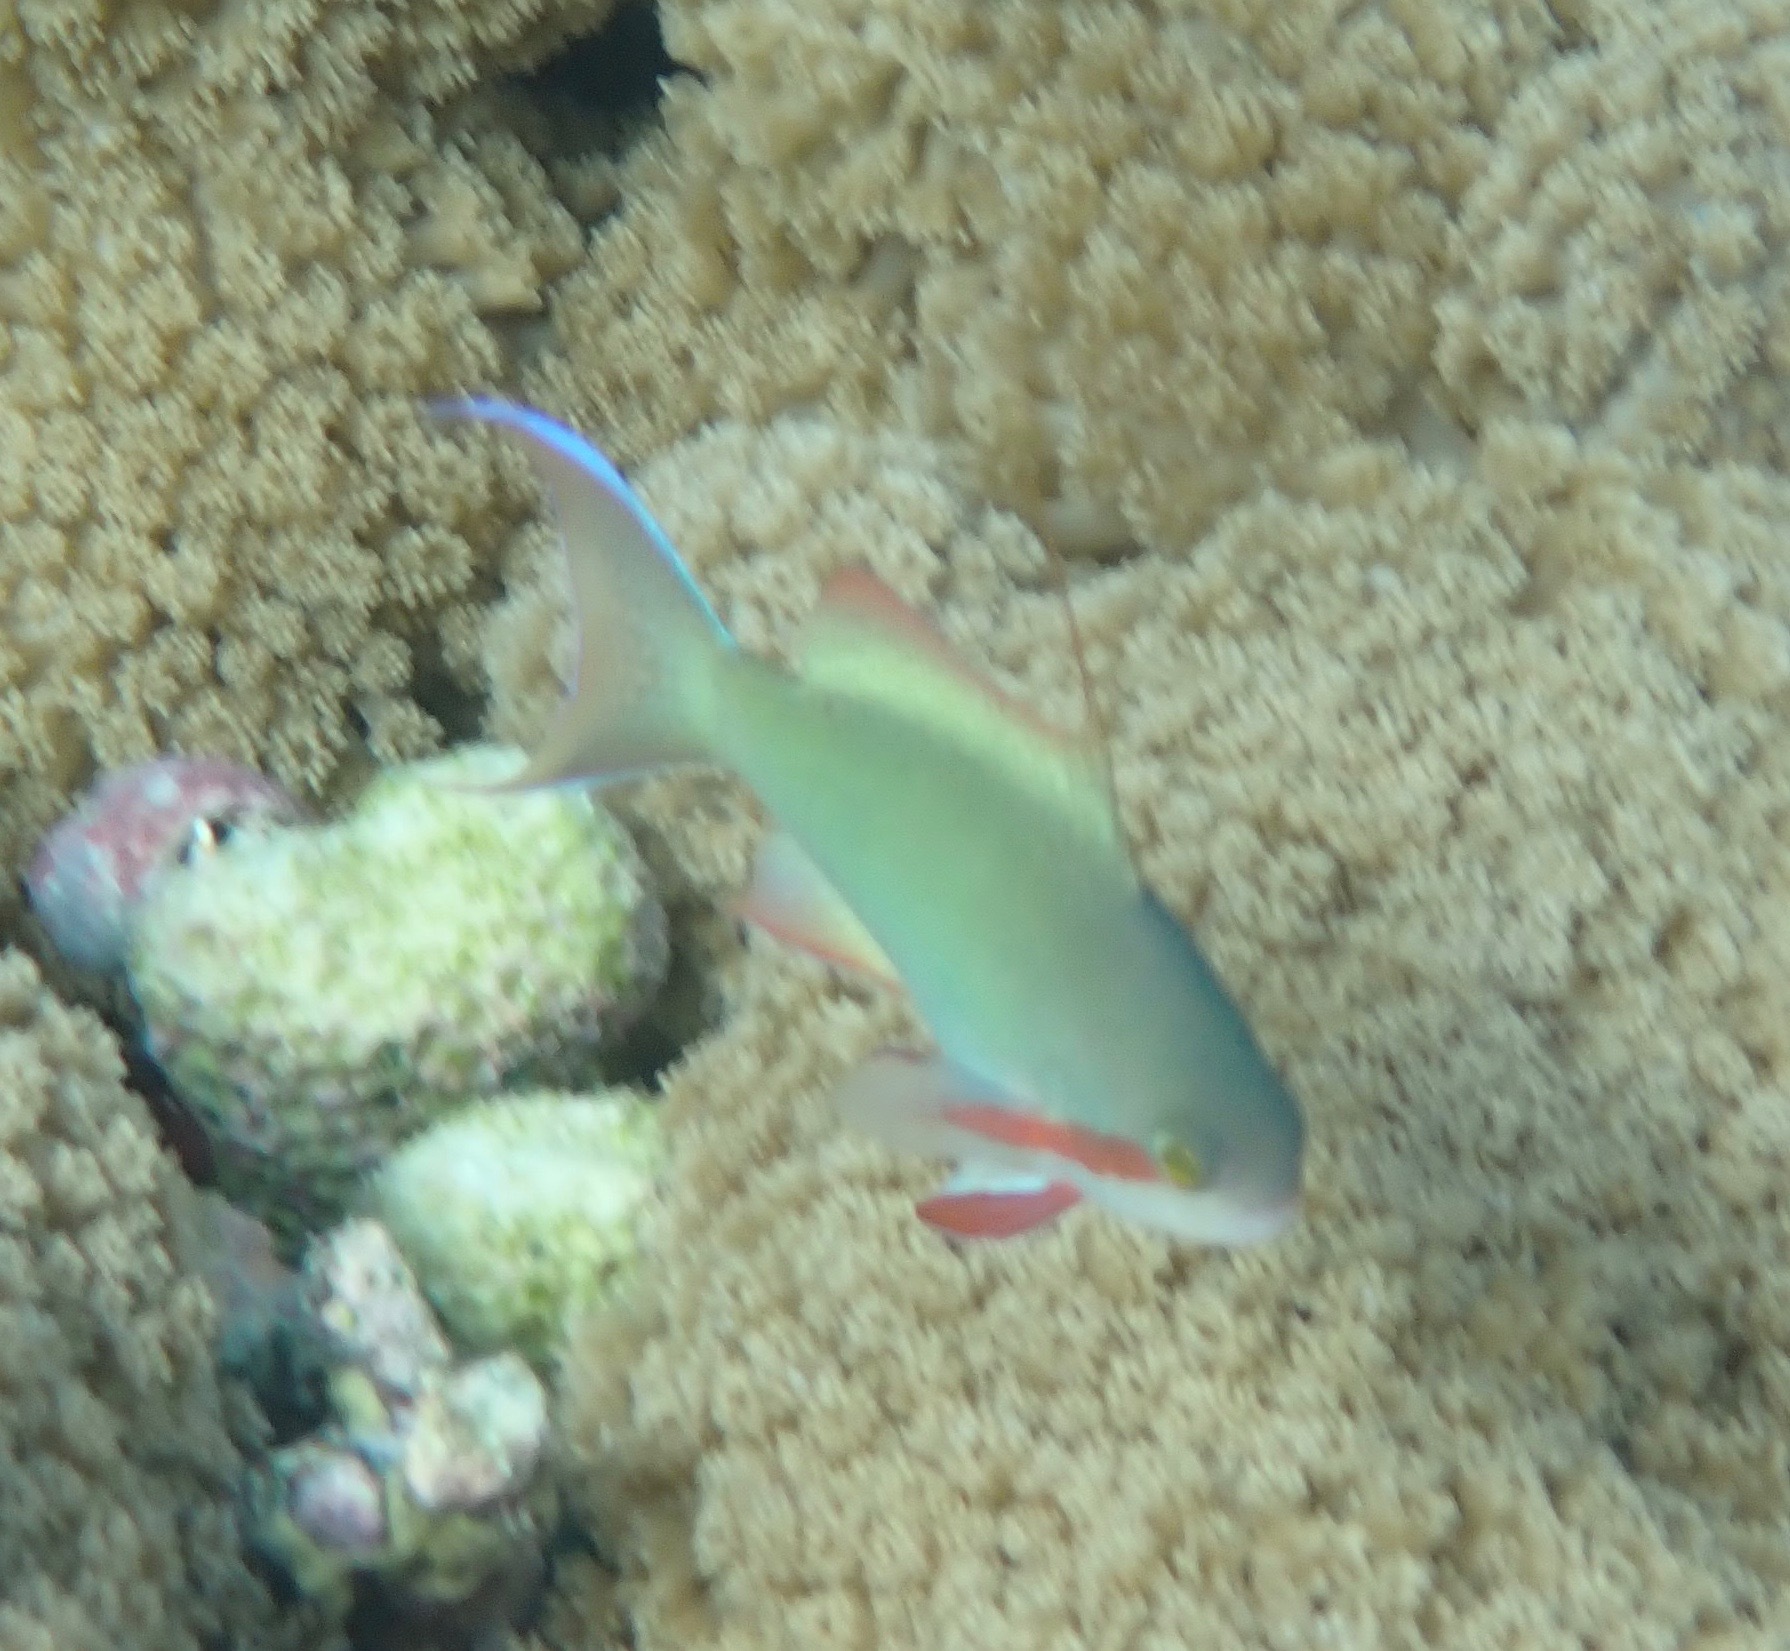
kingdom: Animalia
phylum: Chordata
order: Perciformes
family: Serranidae
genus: Pseudanthias
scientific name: Pseudanthias huchtii
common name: Pacific basslet
